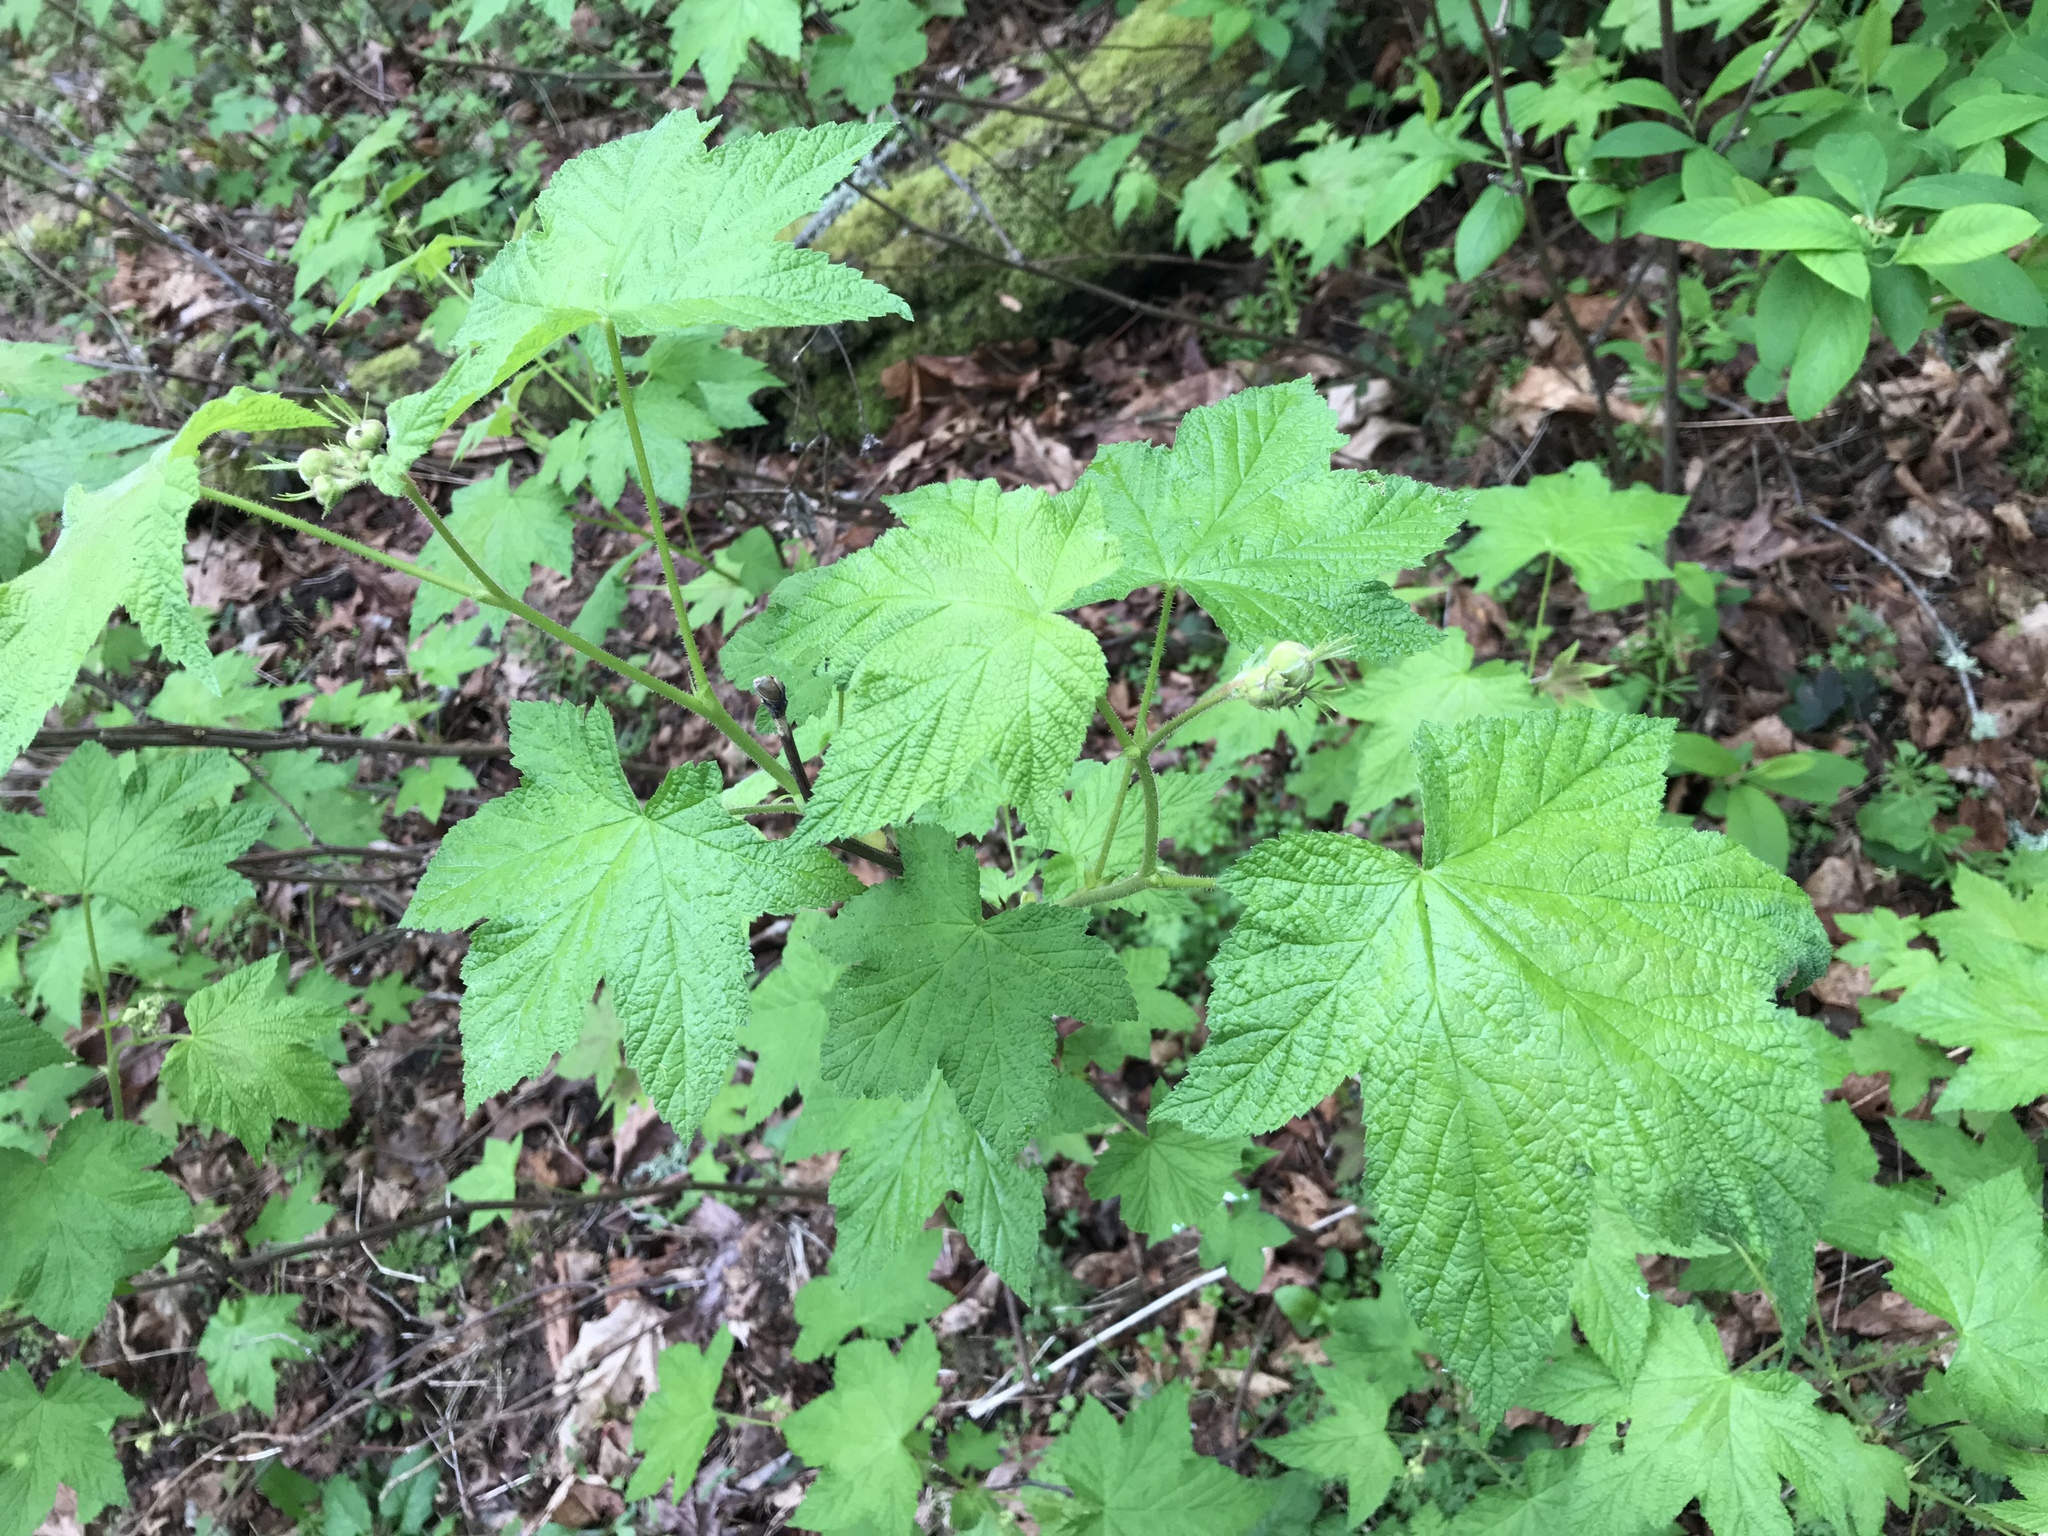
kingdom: Plantae
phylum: Tracheophyta
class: Magnoliopsida
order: Rosales
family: Rosaceae
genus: Rubus
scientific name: Rubus parviflorus
